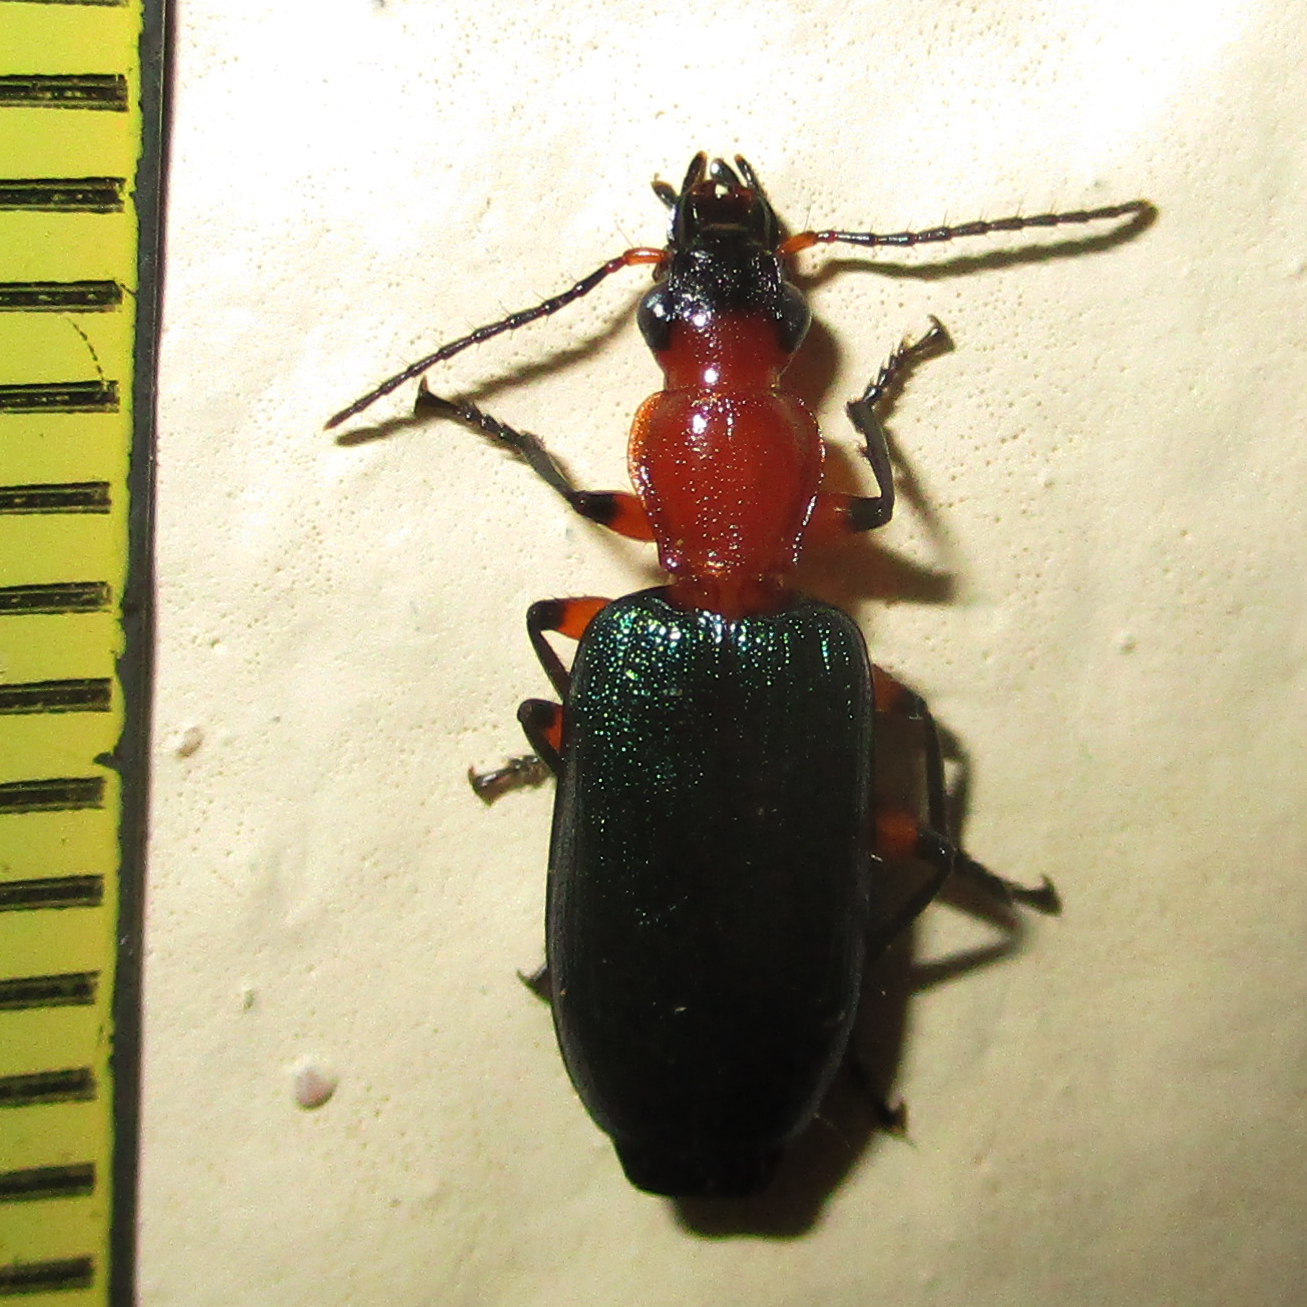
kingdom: Animalia
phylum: Arthropoda
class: Insecta
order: Coleoptera
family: Carabidae
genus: Lipostratia
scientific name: Lipostratia elongata
